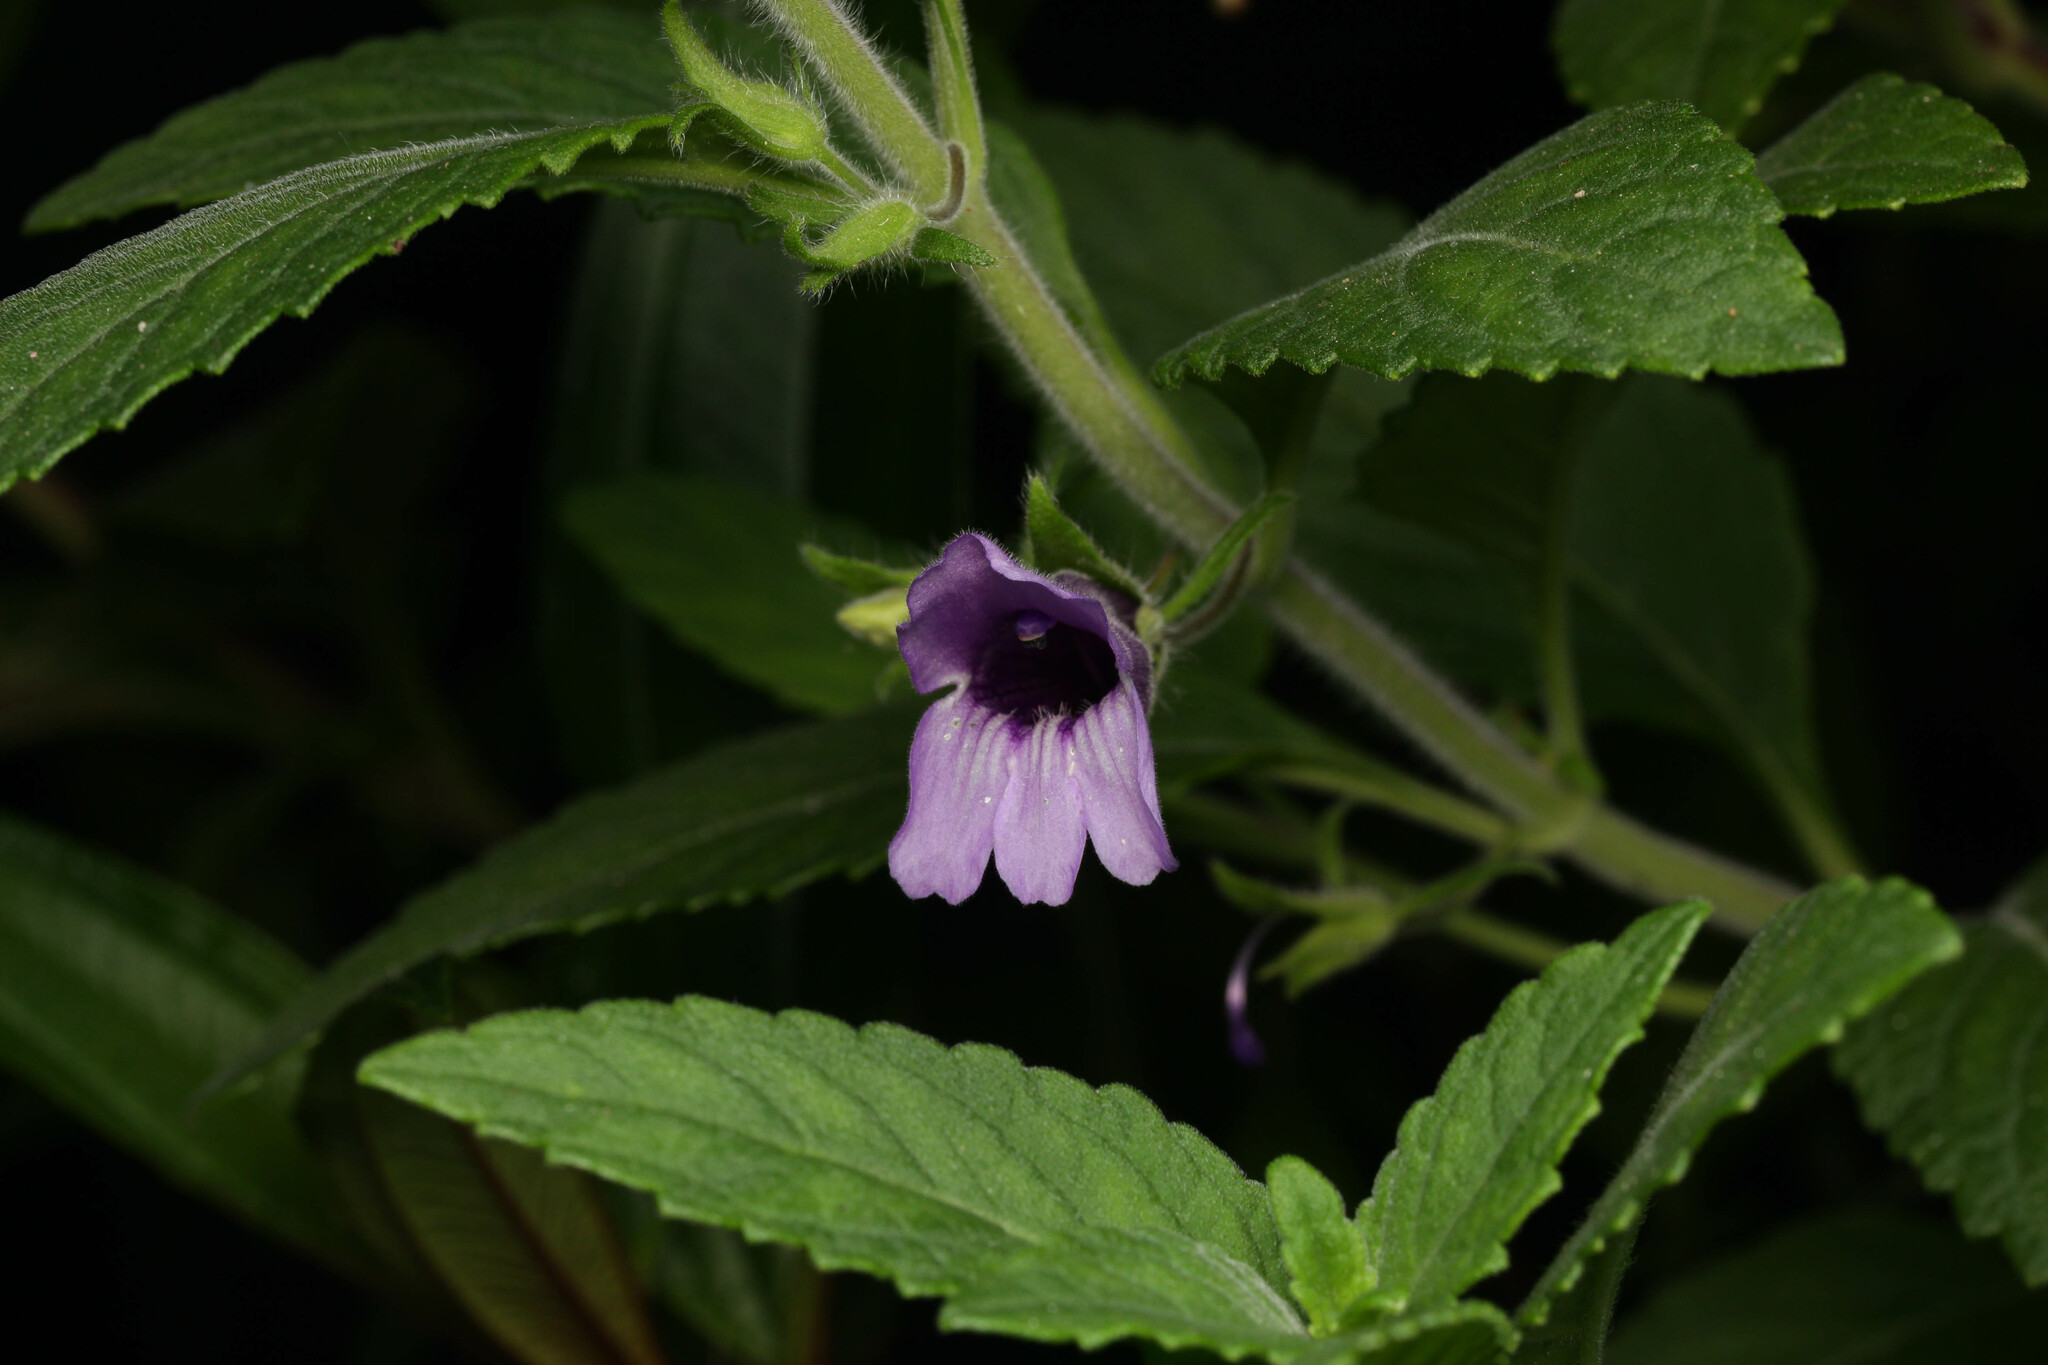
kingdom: Plantae
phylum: Tracheophyta
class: Magnoliopsida
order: Lamiales
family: Plantaginaceae
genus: Adenosma
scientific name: Adenosma glutinosa
